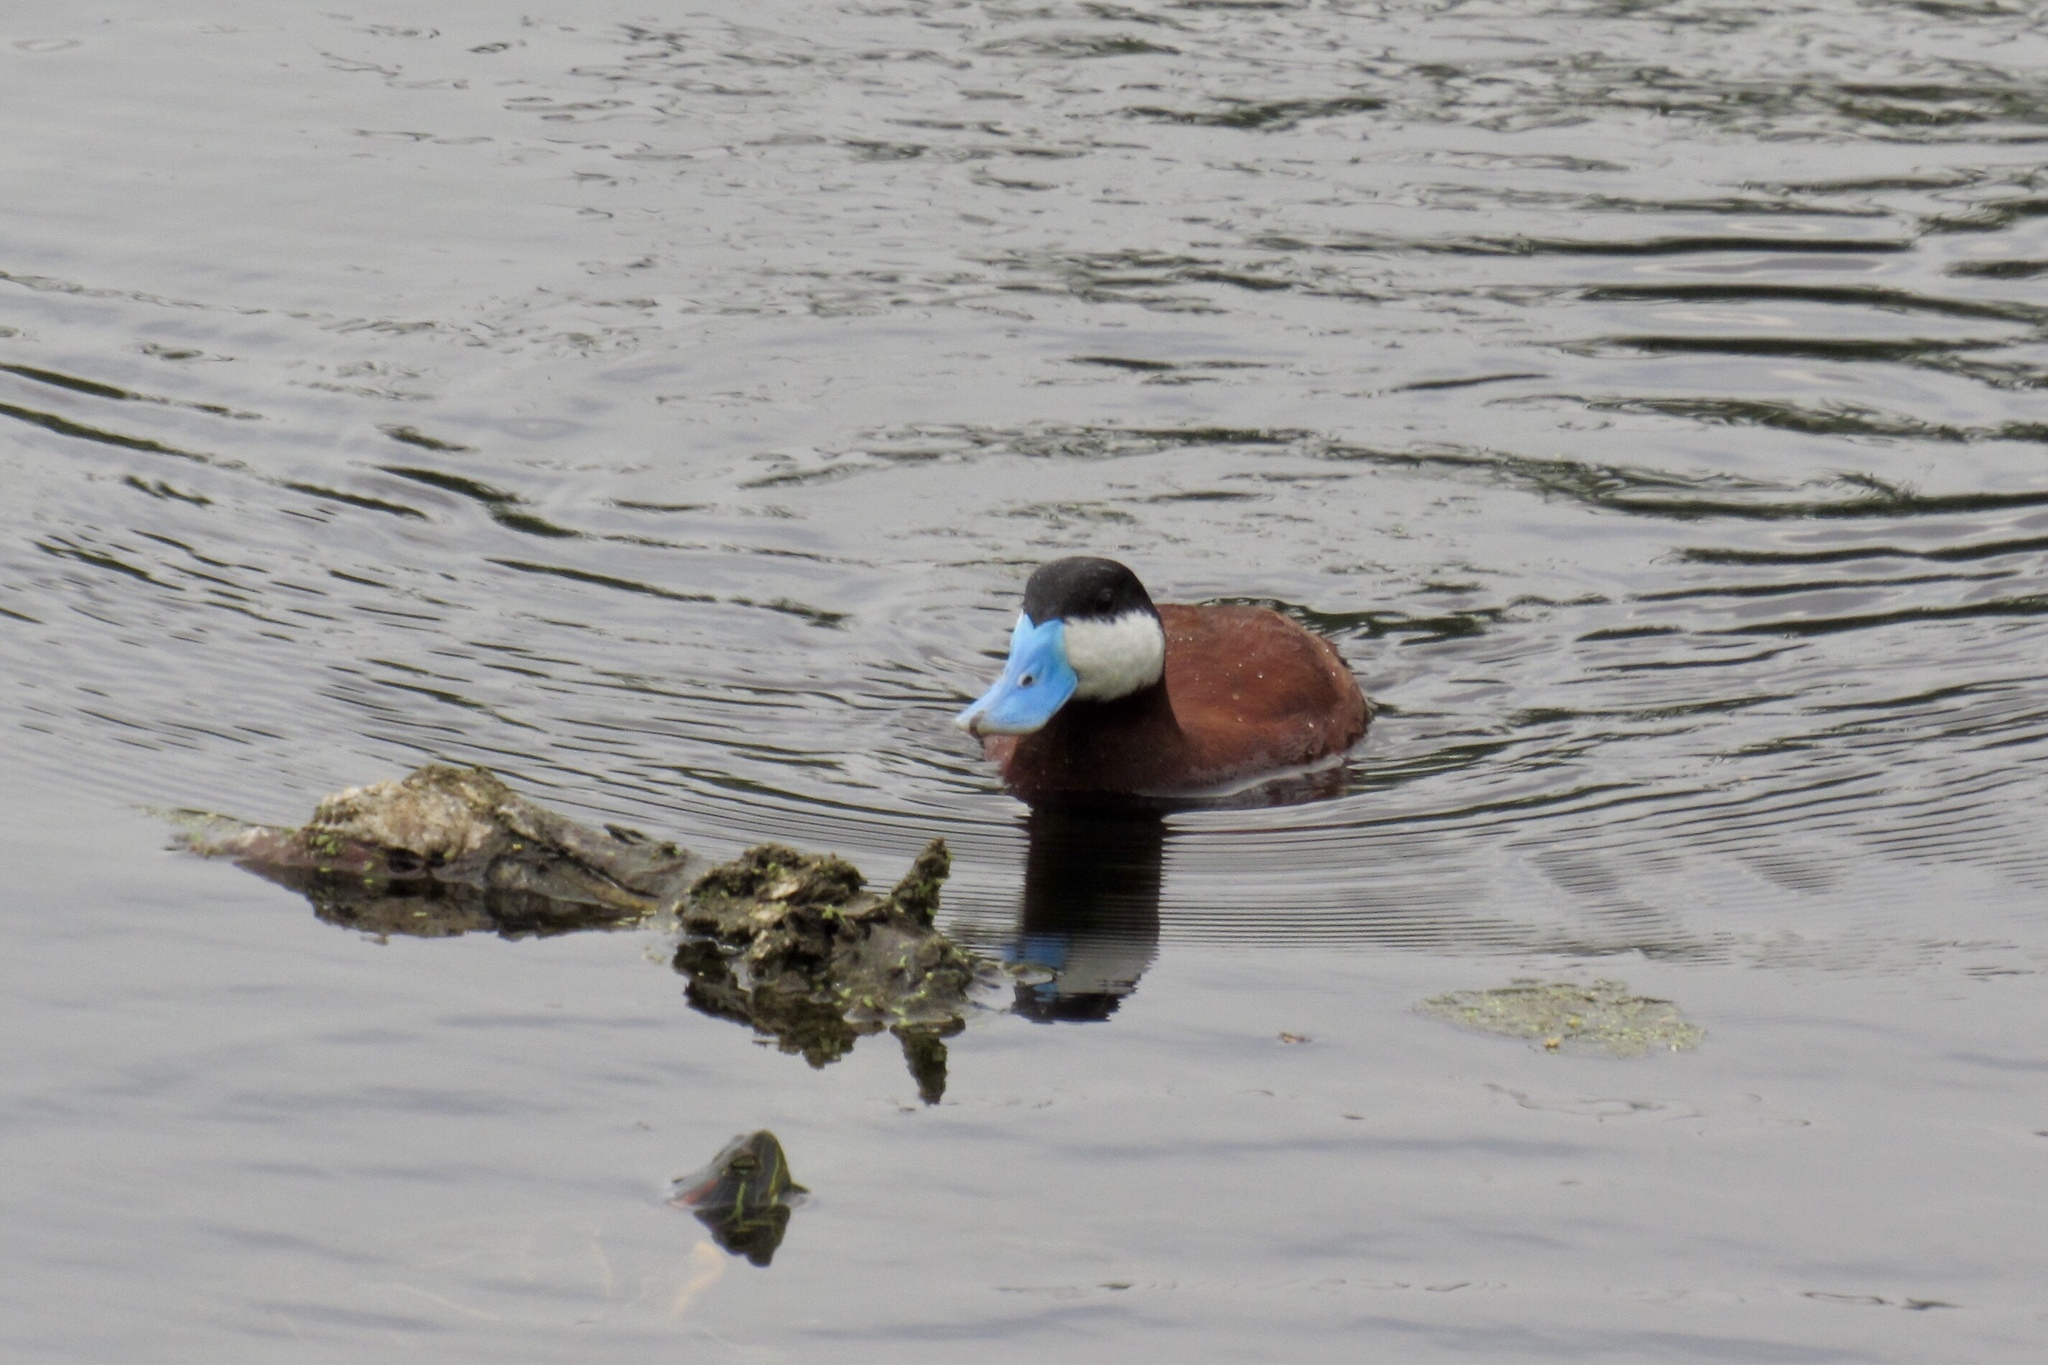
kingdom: Animalia
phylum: Chordata
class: Aves
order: Anseriformes
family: Anatidae
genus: Oxyura
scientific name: Oxyura jamaicensis
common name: Ruddy duck
